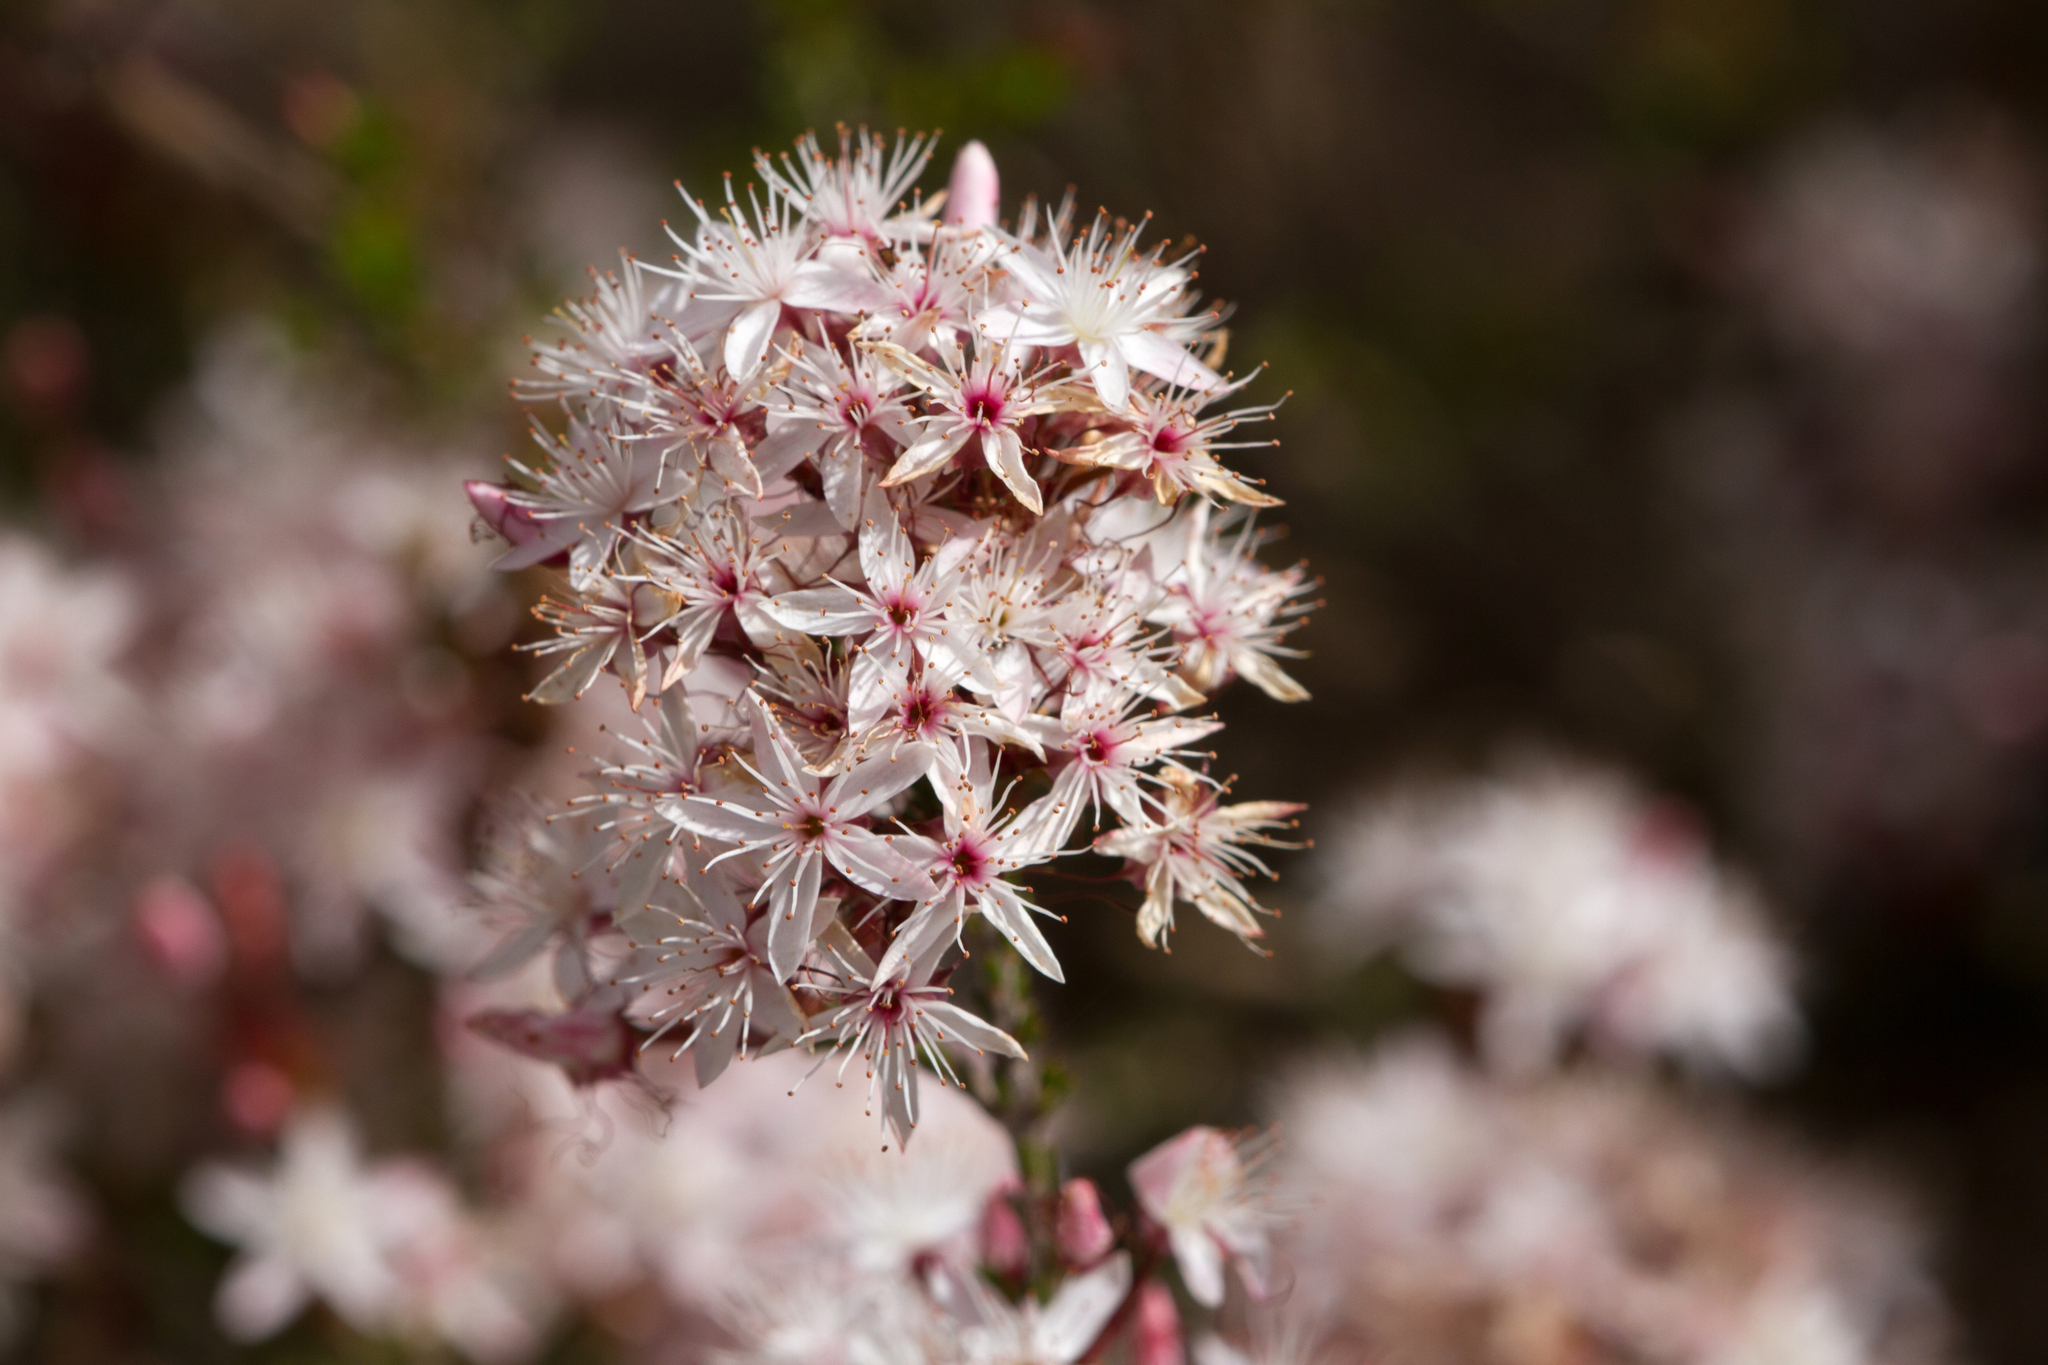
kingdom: Plantae
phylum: Tracheophyta
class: Magnoliopsida
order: Myrtales
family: Myrtaceae
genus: Calytrix
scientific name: Calytrix tetragona
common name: Common fringe myrtle
